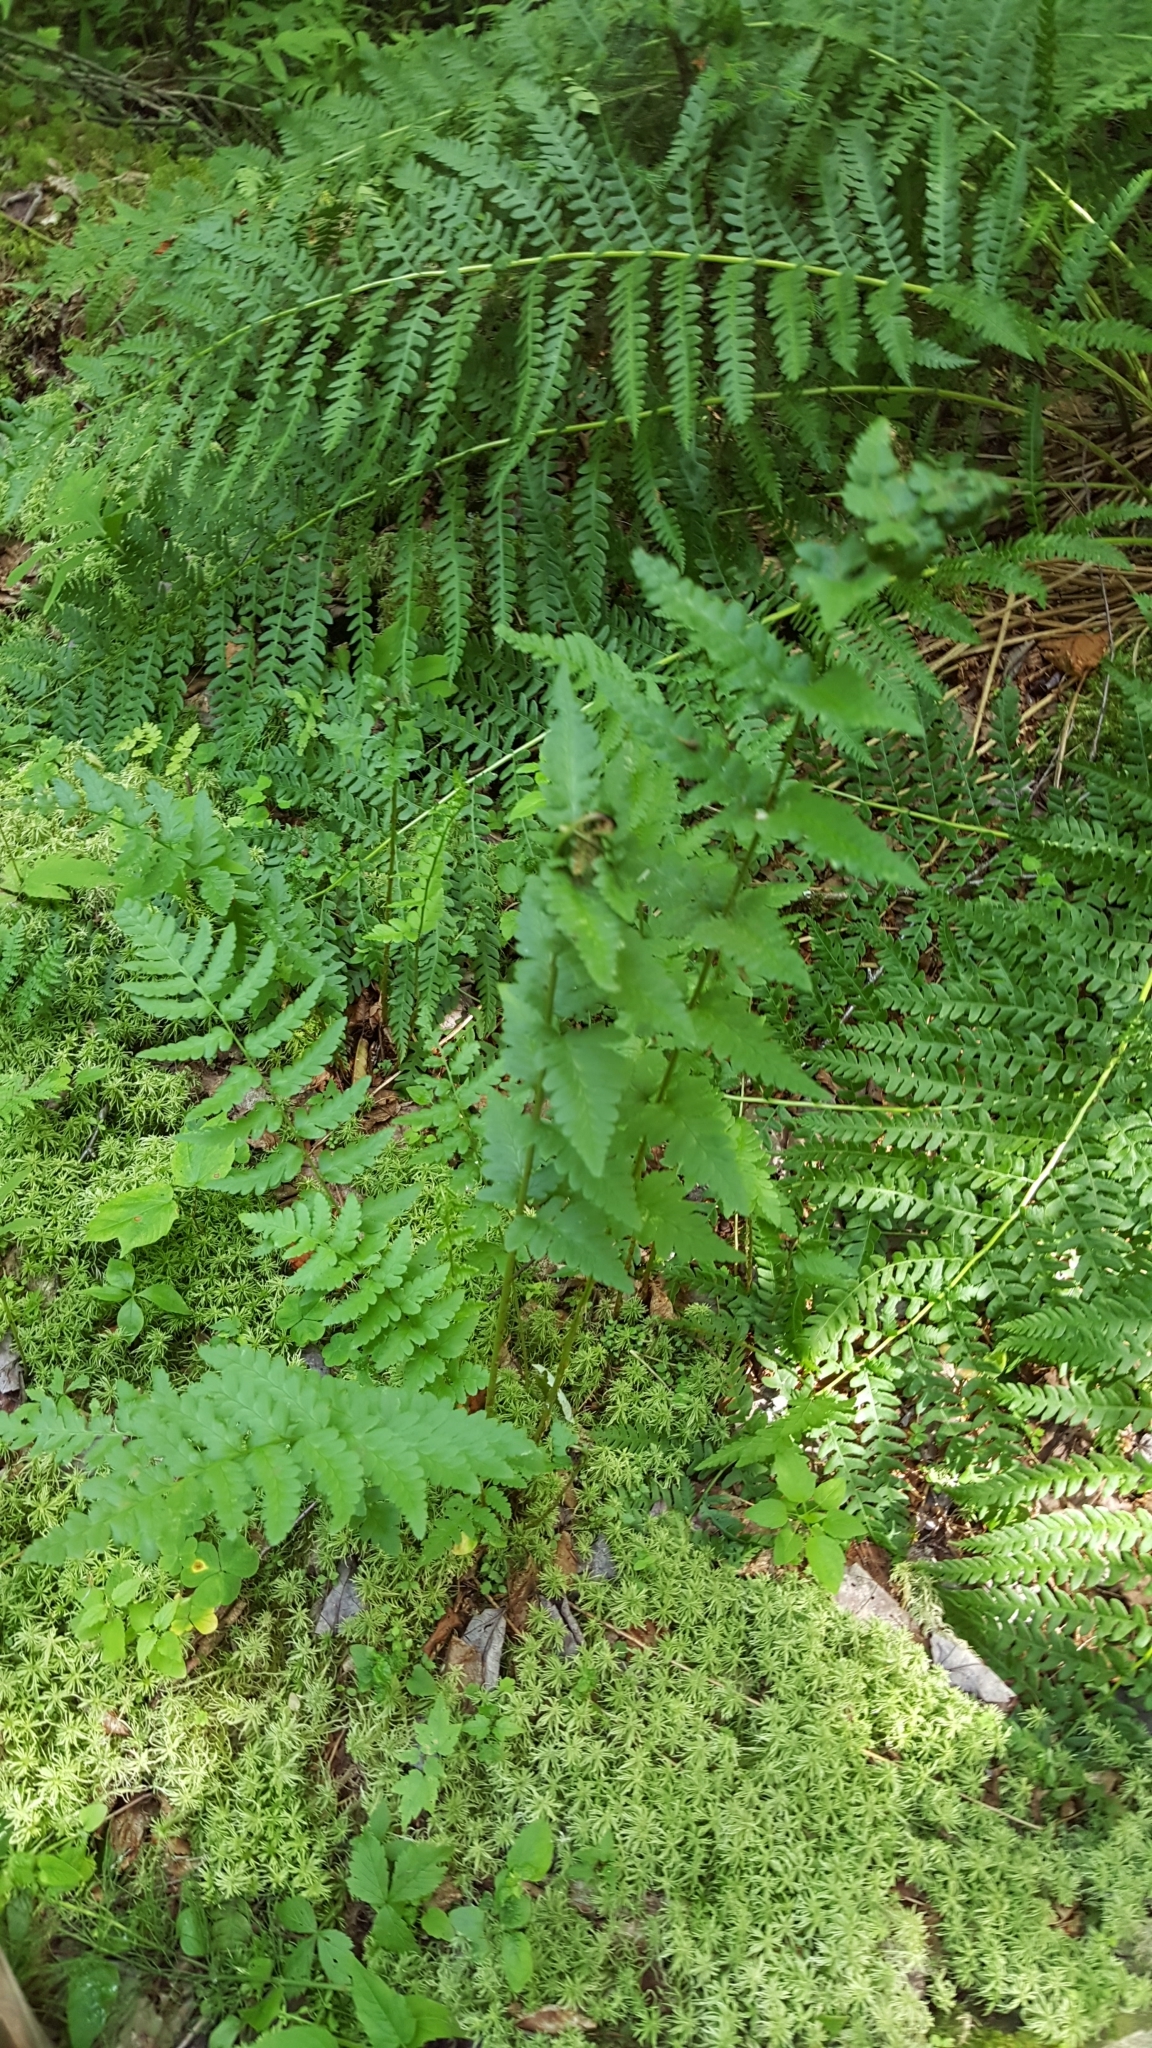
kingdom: Plantae
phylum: Tracheophyta
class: Polypodiopsida
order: Polypodiales
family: Dryopteridaceae
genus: Dryopteris
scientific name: Dryopteris cristata
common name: Crested wood fern
